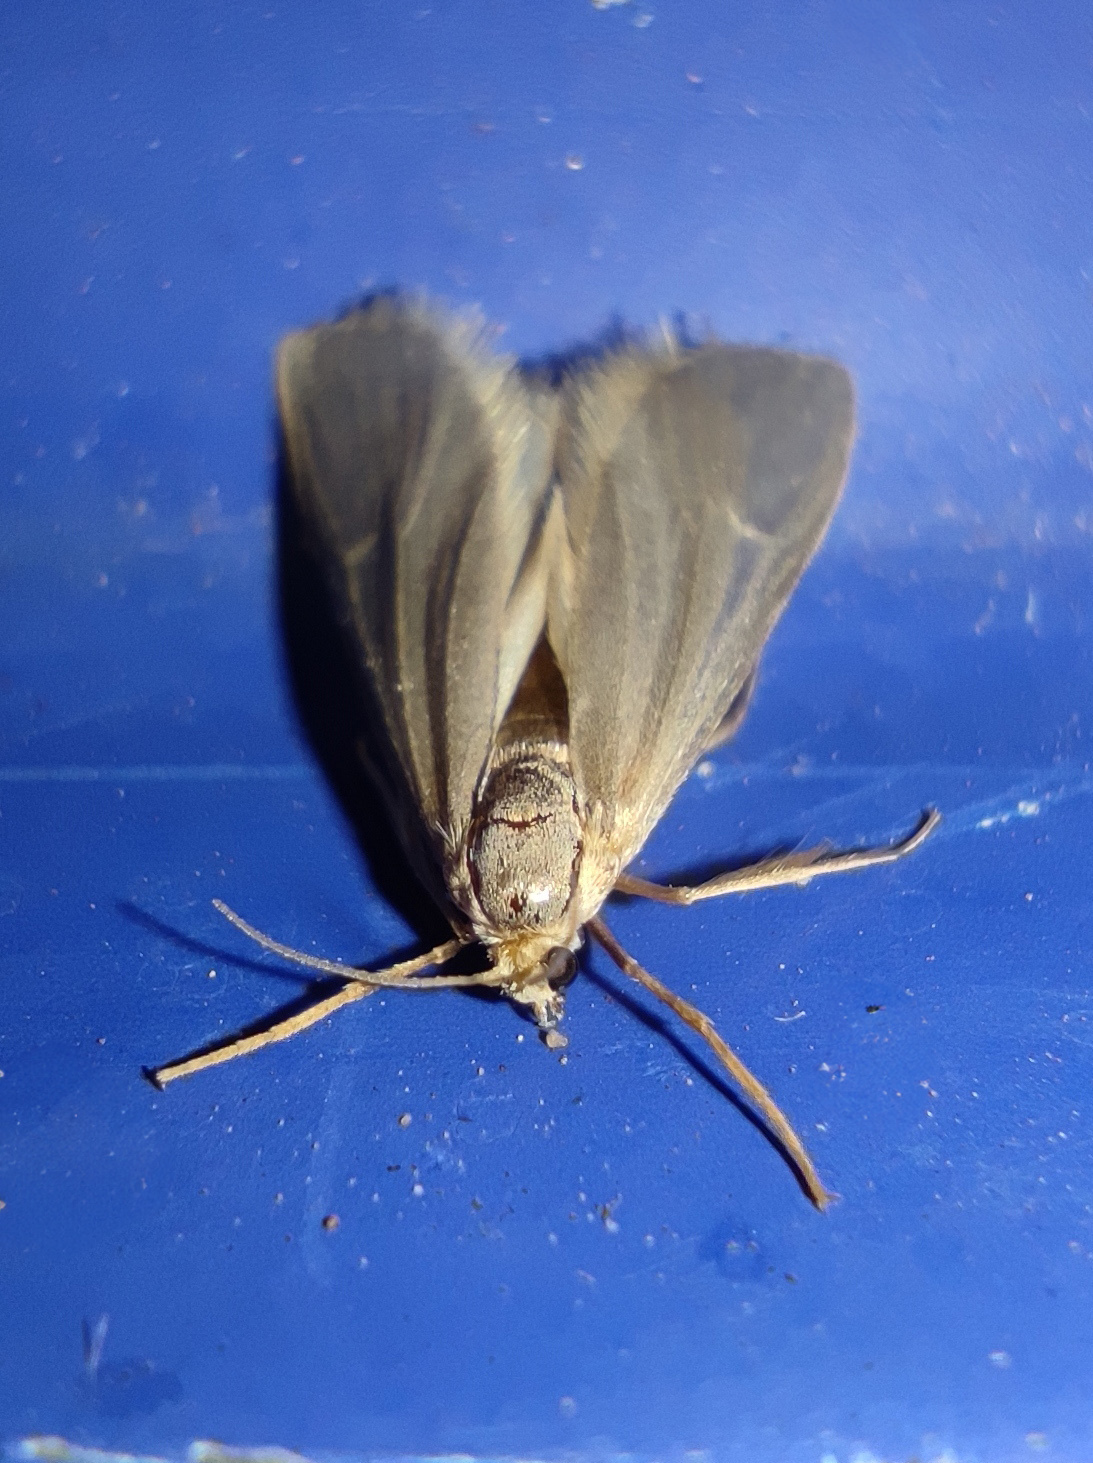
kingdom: Animalia
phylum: Arthropoda
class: Insecta
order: Lepidoptera
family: Crambidae
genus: Acentria
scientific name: Acentria ephemerella
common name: European water moth
